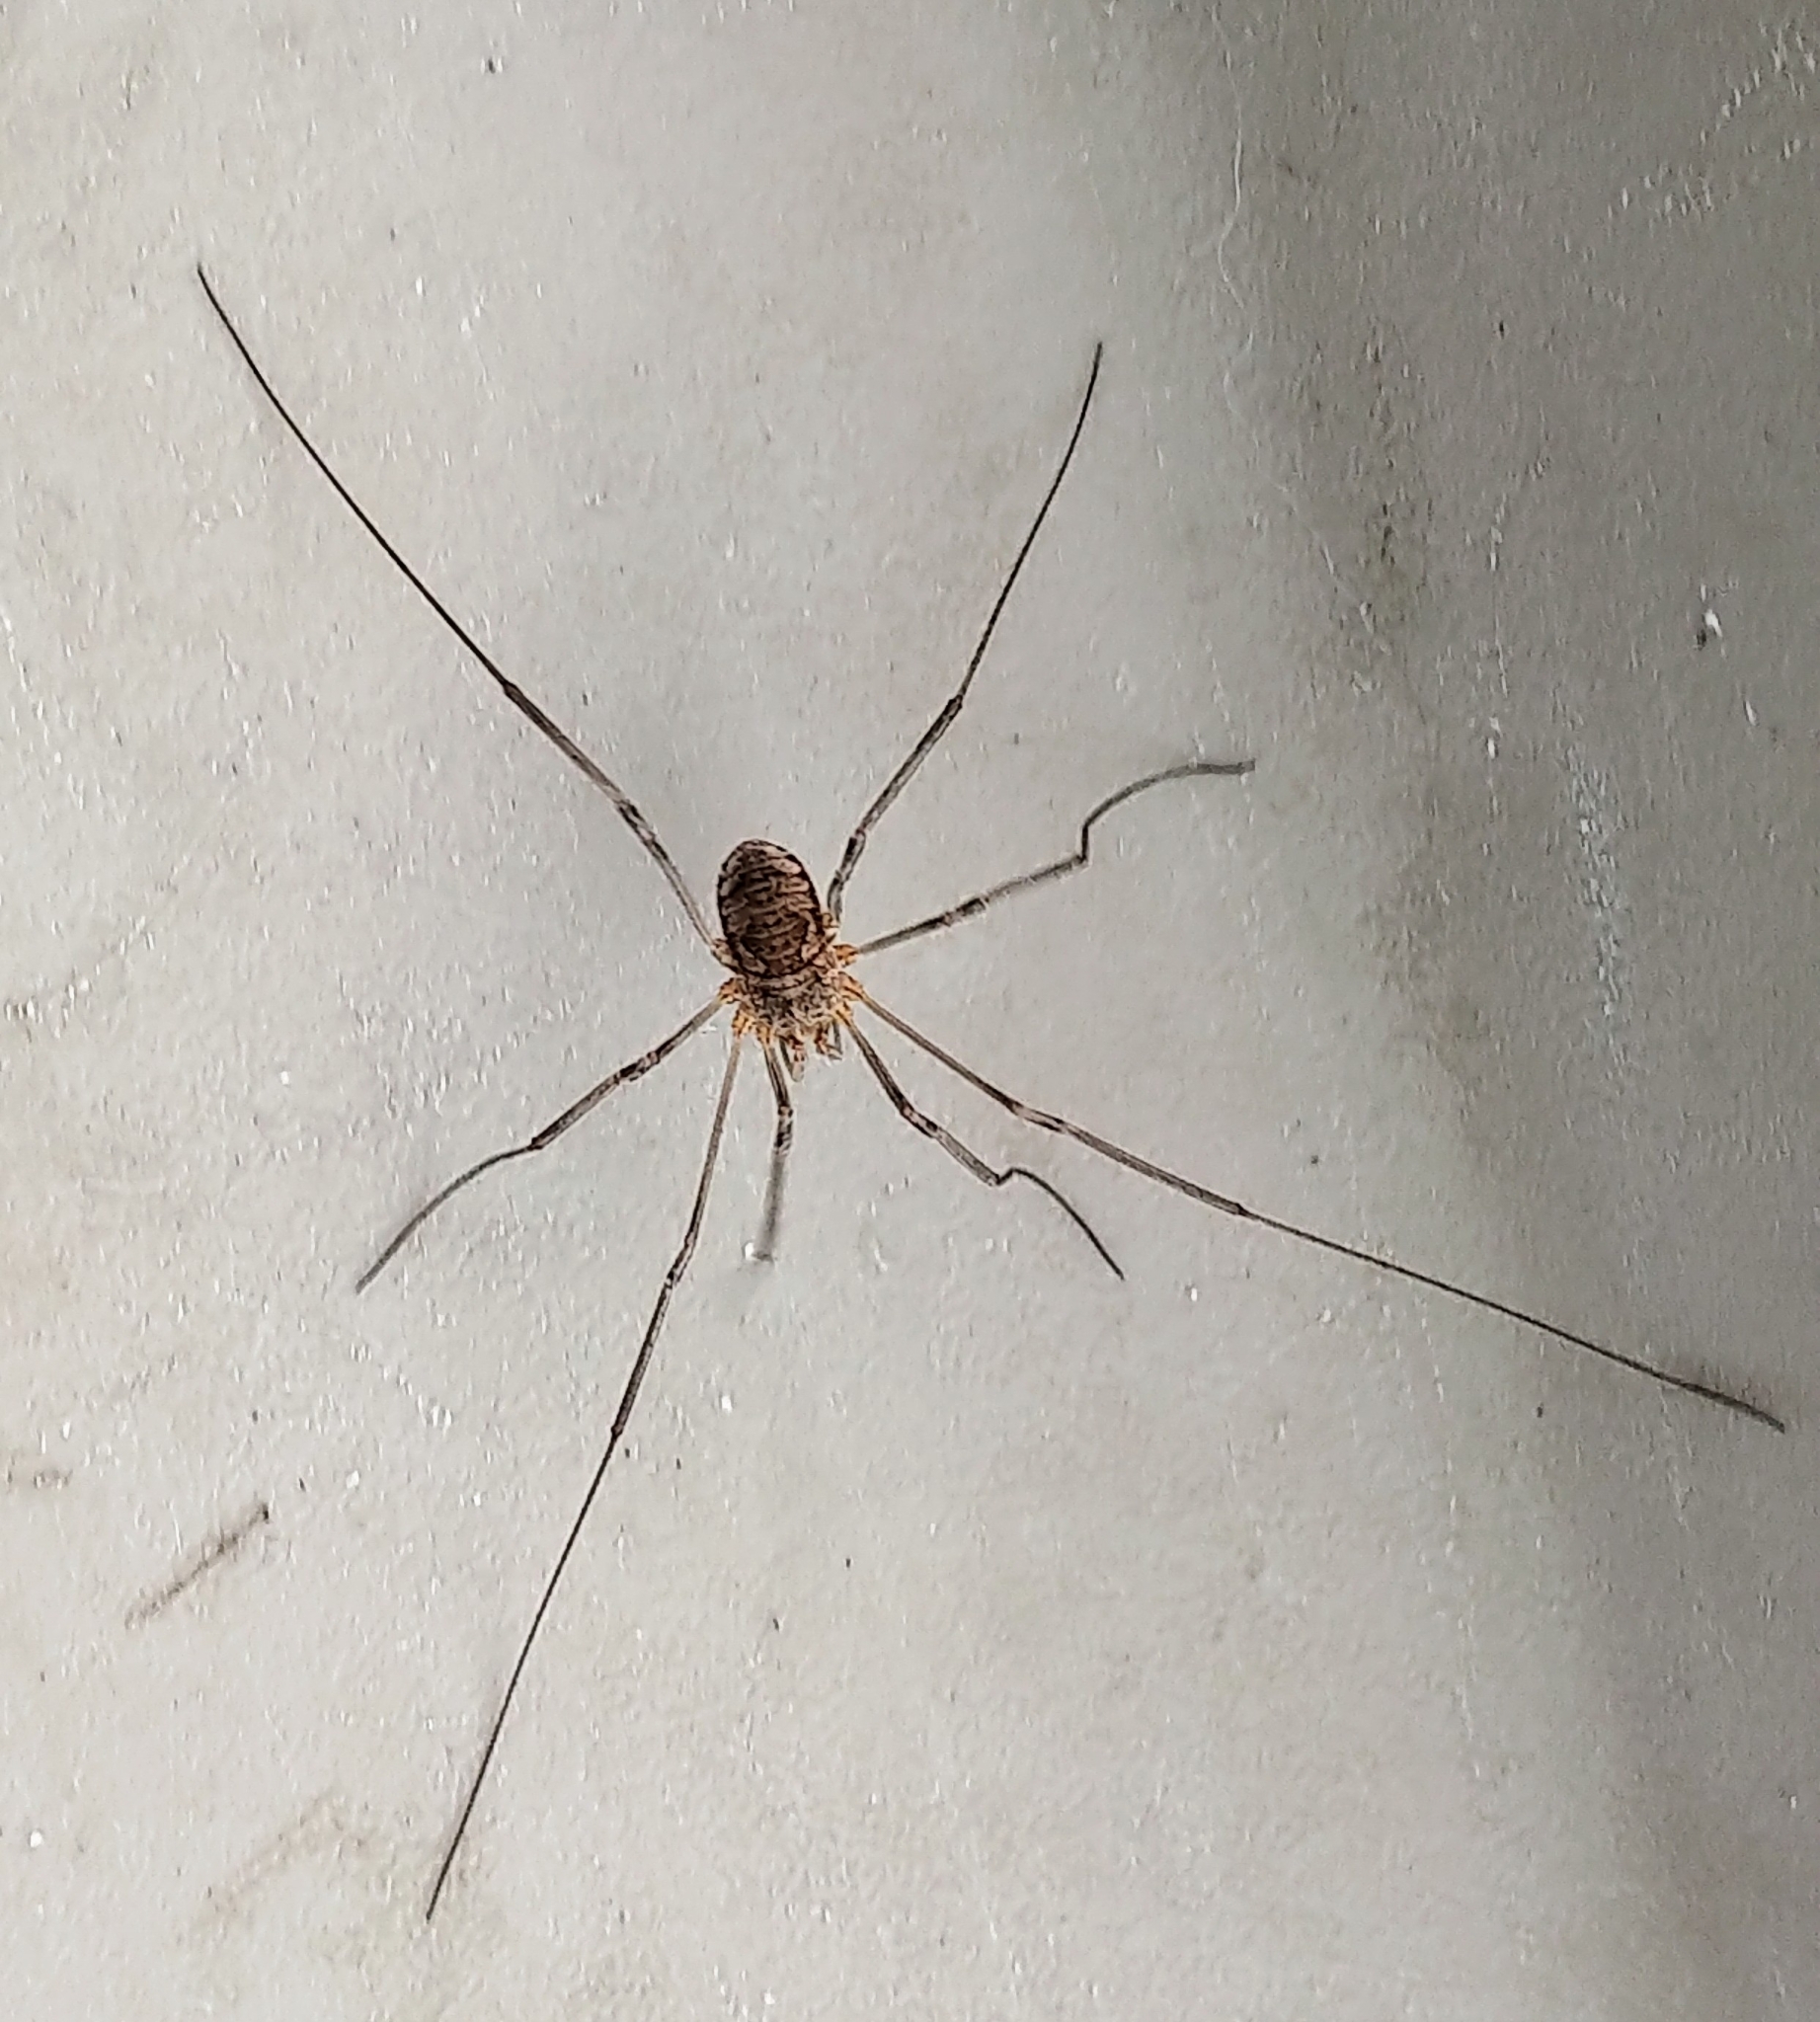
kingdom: Animalia
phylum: Arthropoda
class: Arachnida
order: Opiliones
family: Phalangiidae
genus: Phalangium
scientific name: Phalangium opilio
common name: Daddy longleg
